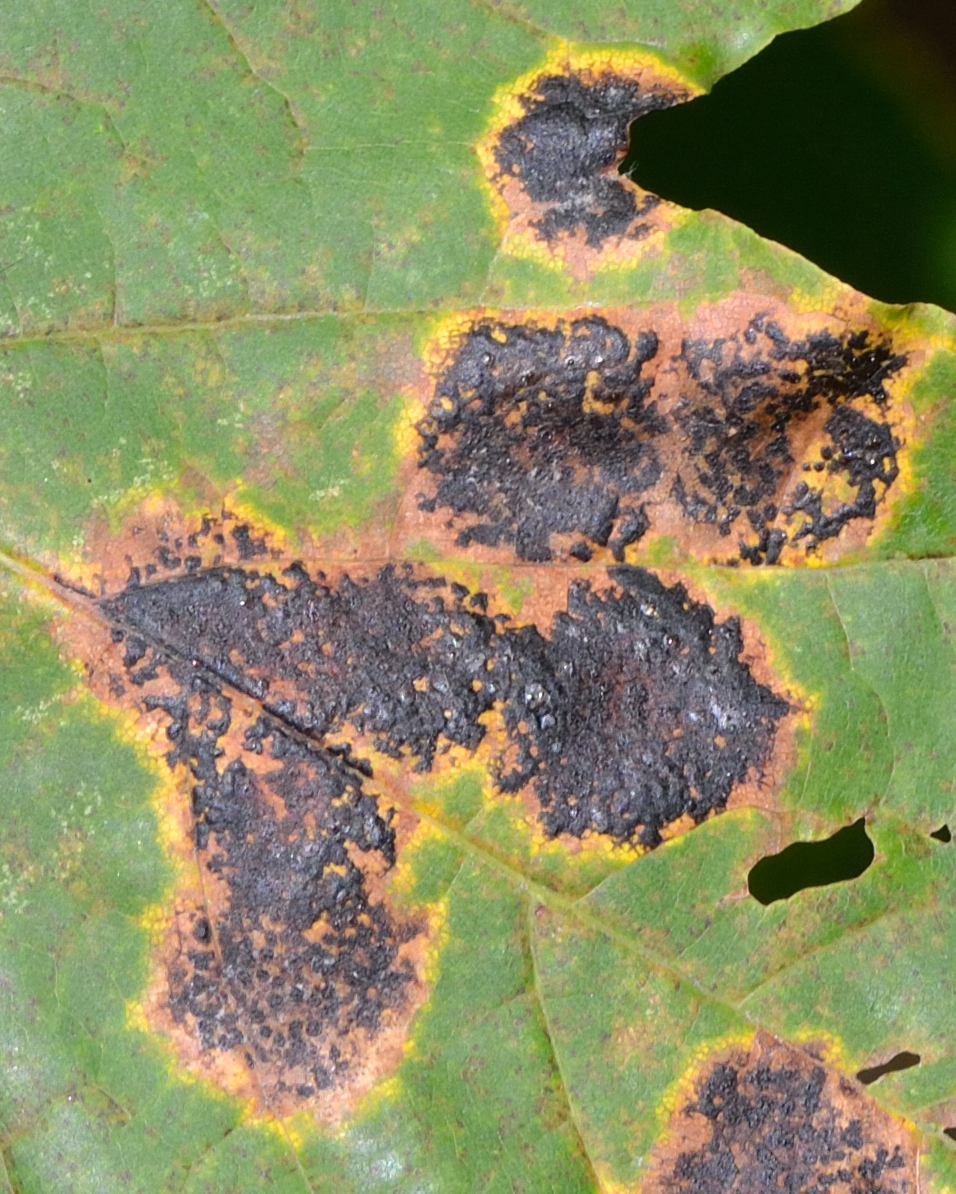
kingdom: Fungi
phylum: Ascomycota
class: Leotiomycetes
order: Rhytismatales
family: Rhytismataceae
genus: Rhytisma
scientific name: Rhytisma acerinum
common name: European tar spot
